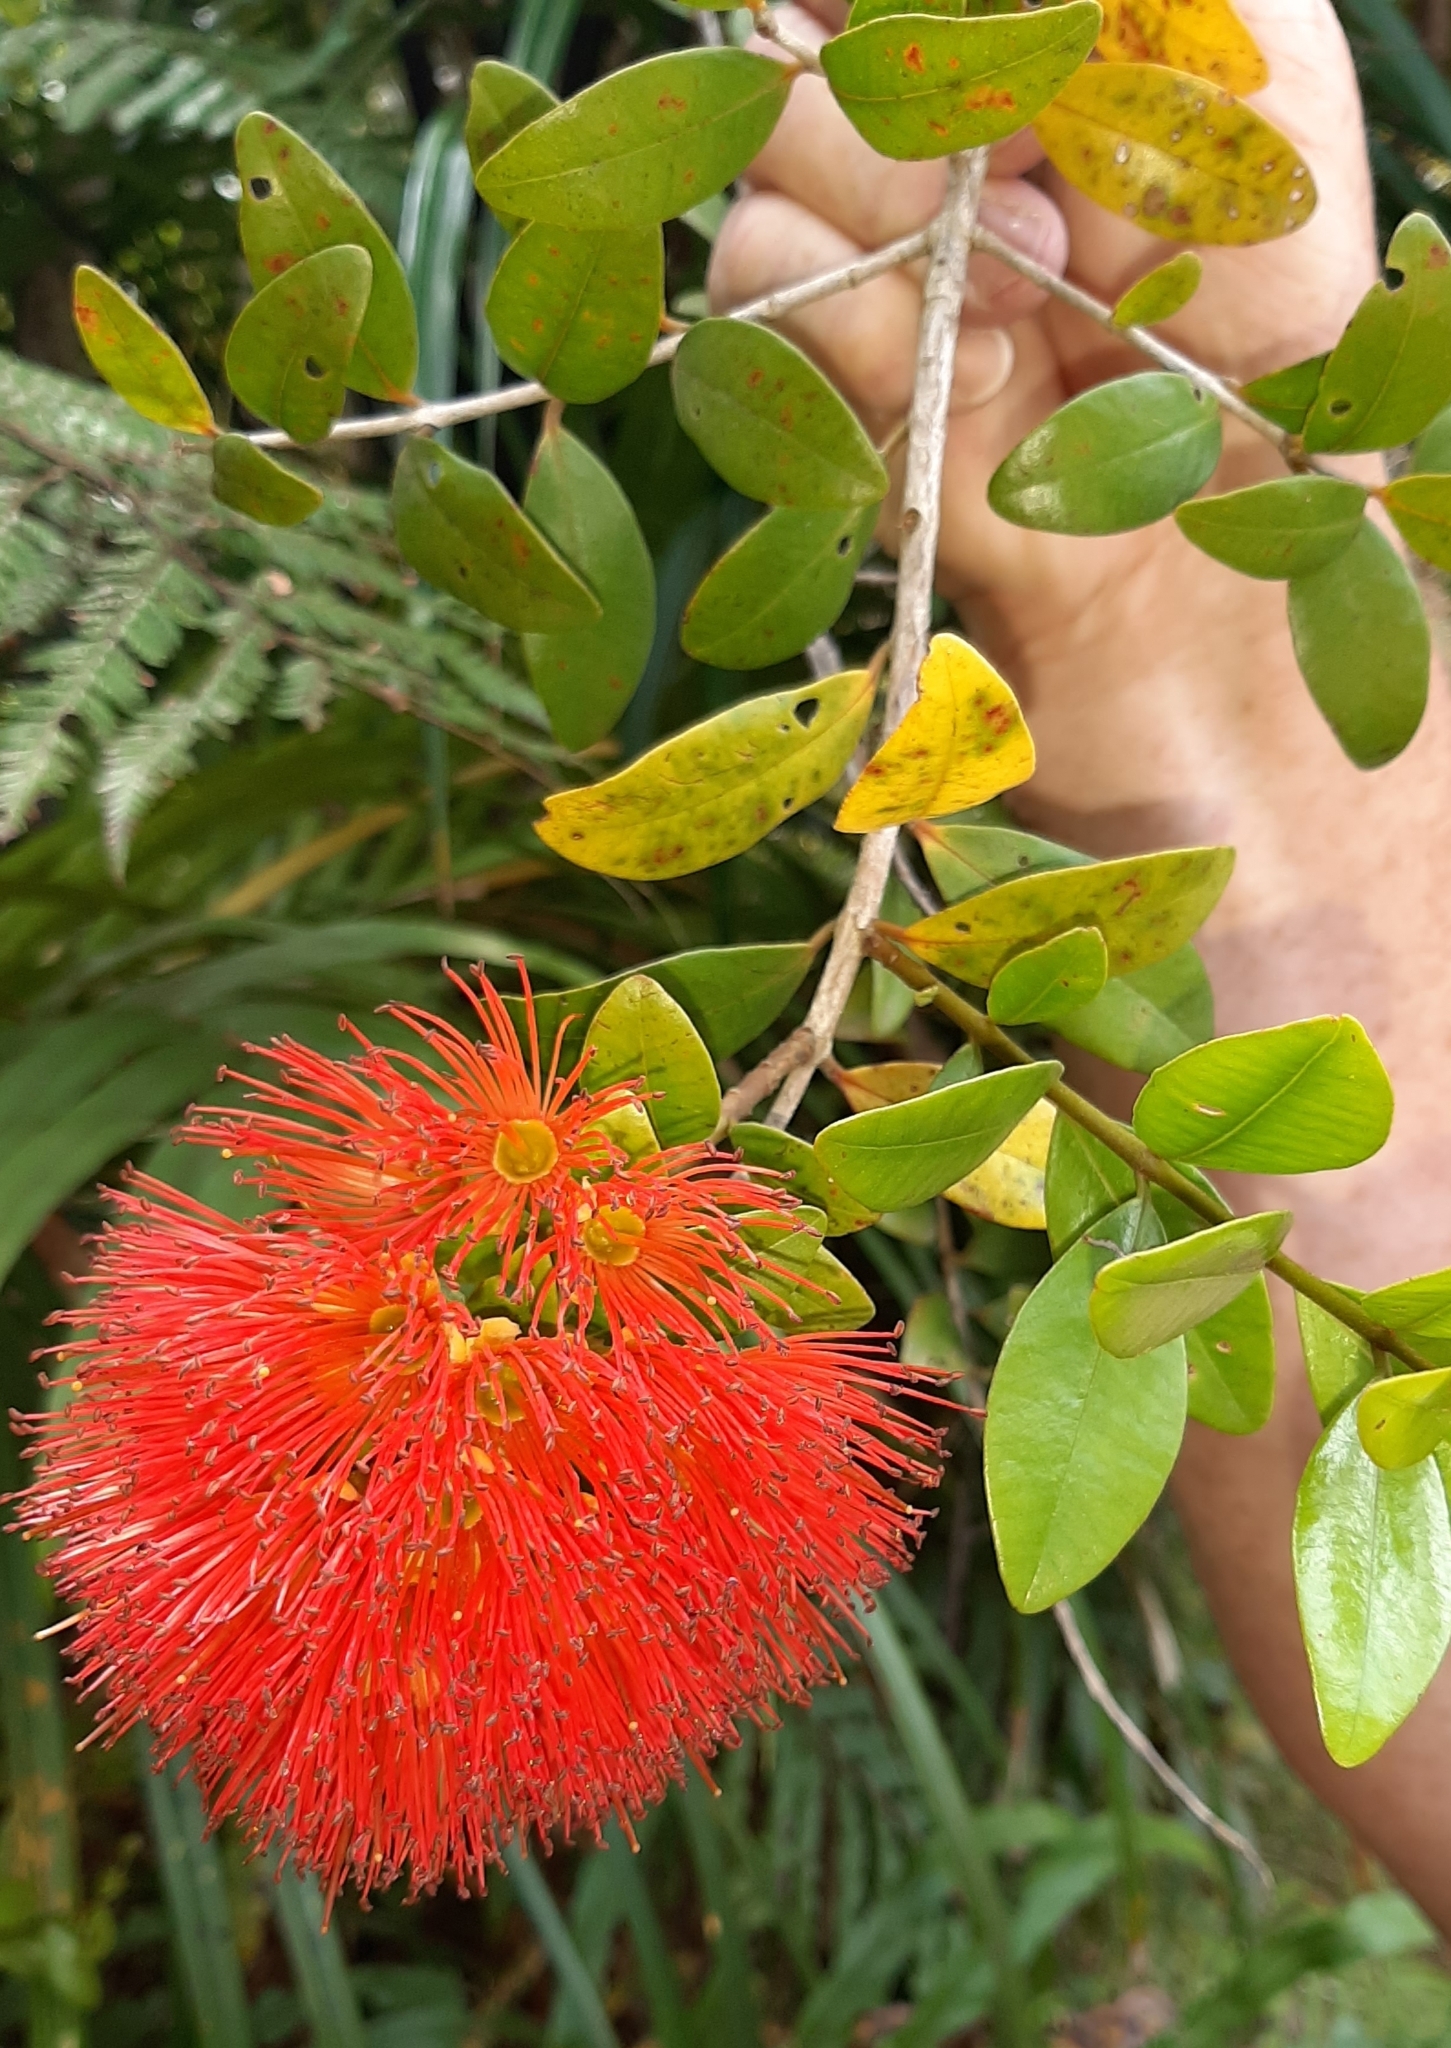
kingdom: Plantae
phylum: Tracheophyta
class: Magnoliopsida
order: Myrtales
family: Myrtaceae
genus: Metrosideros
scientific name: Metrosideros fulgens
